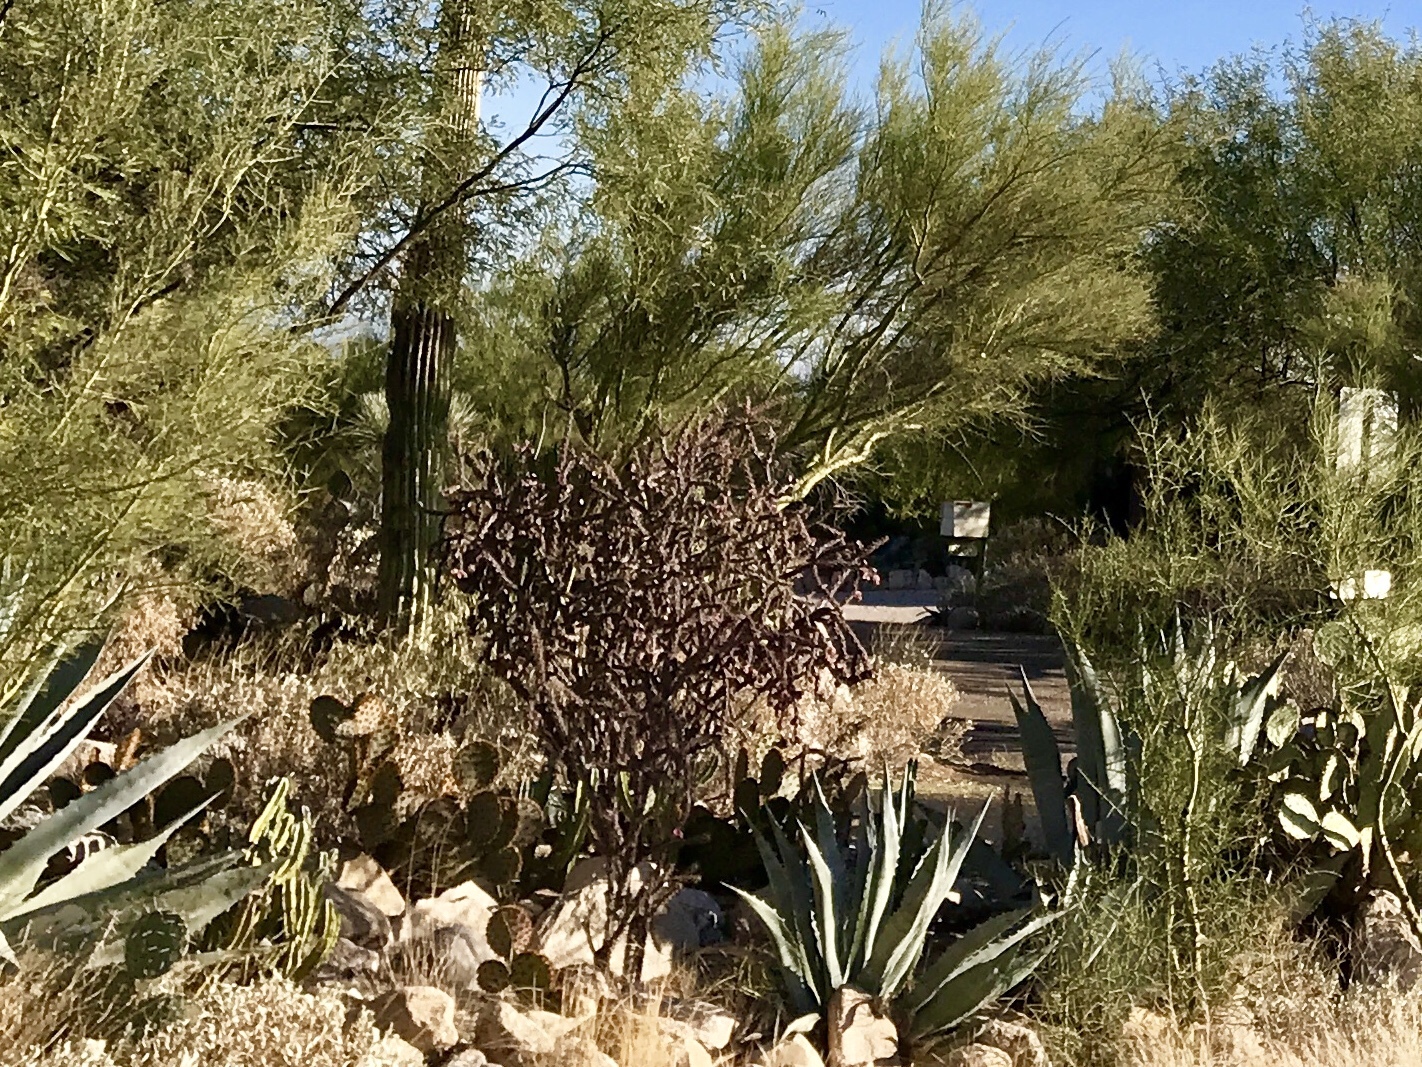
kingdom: Plantae
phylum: Tracheophyta
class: Magnoliopsida
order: Caryophyllales
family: Cactaceae
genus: Cylindropuntia
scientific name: Cylindropuntia thurberi
